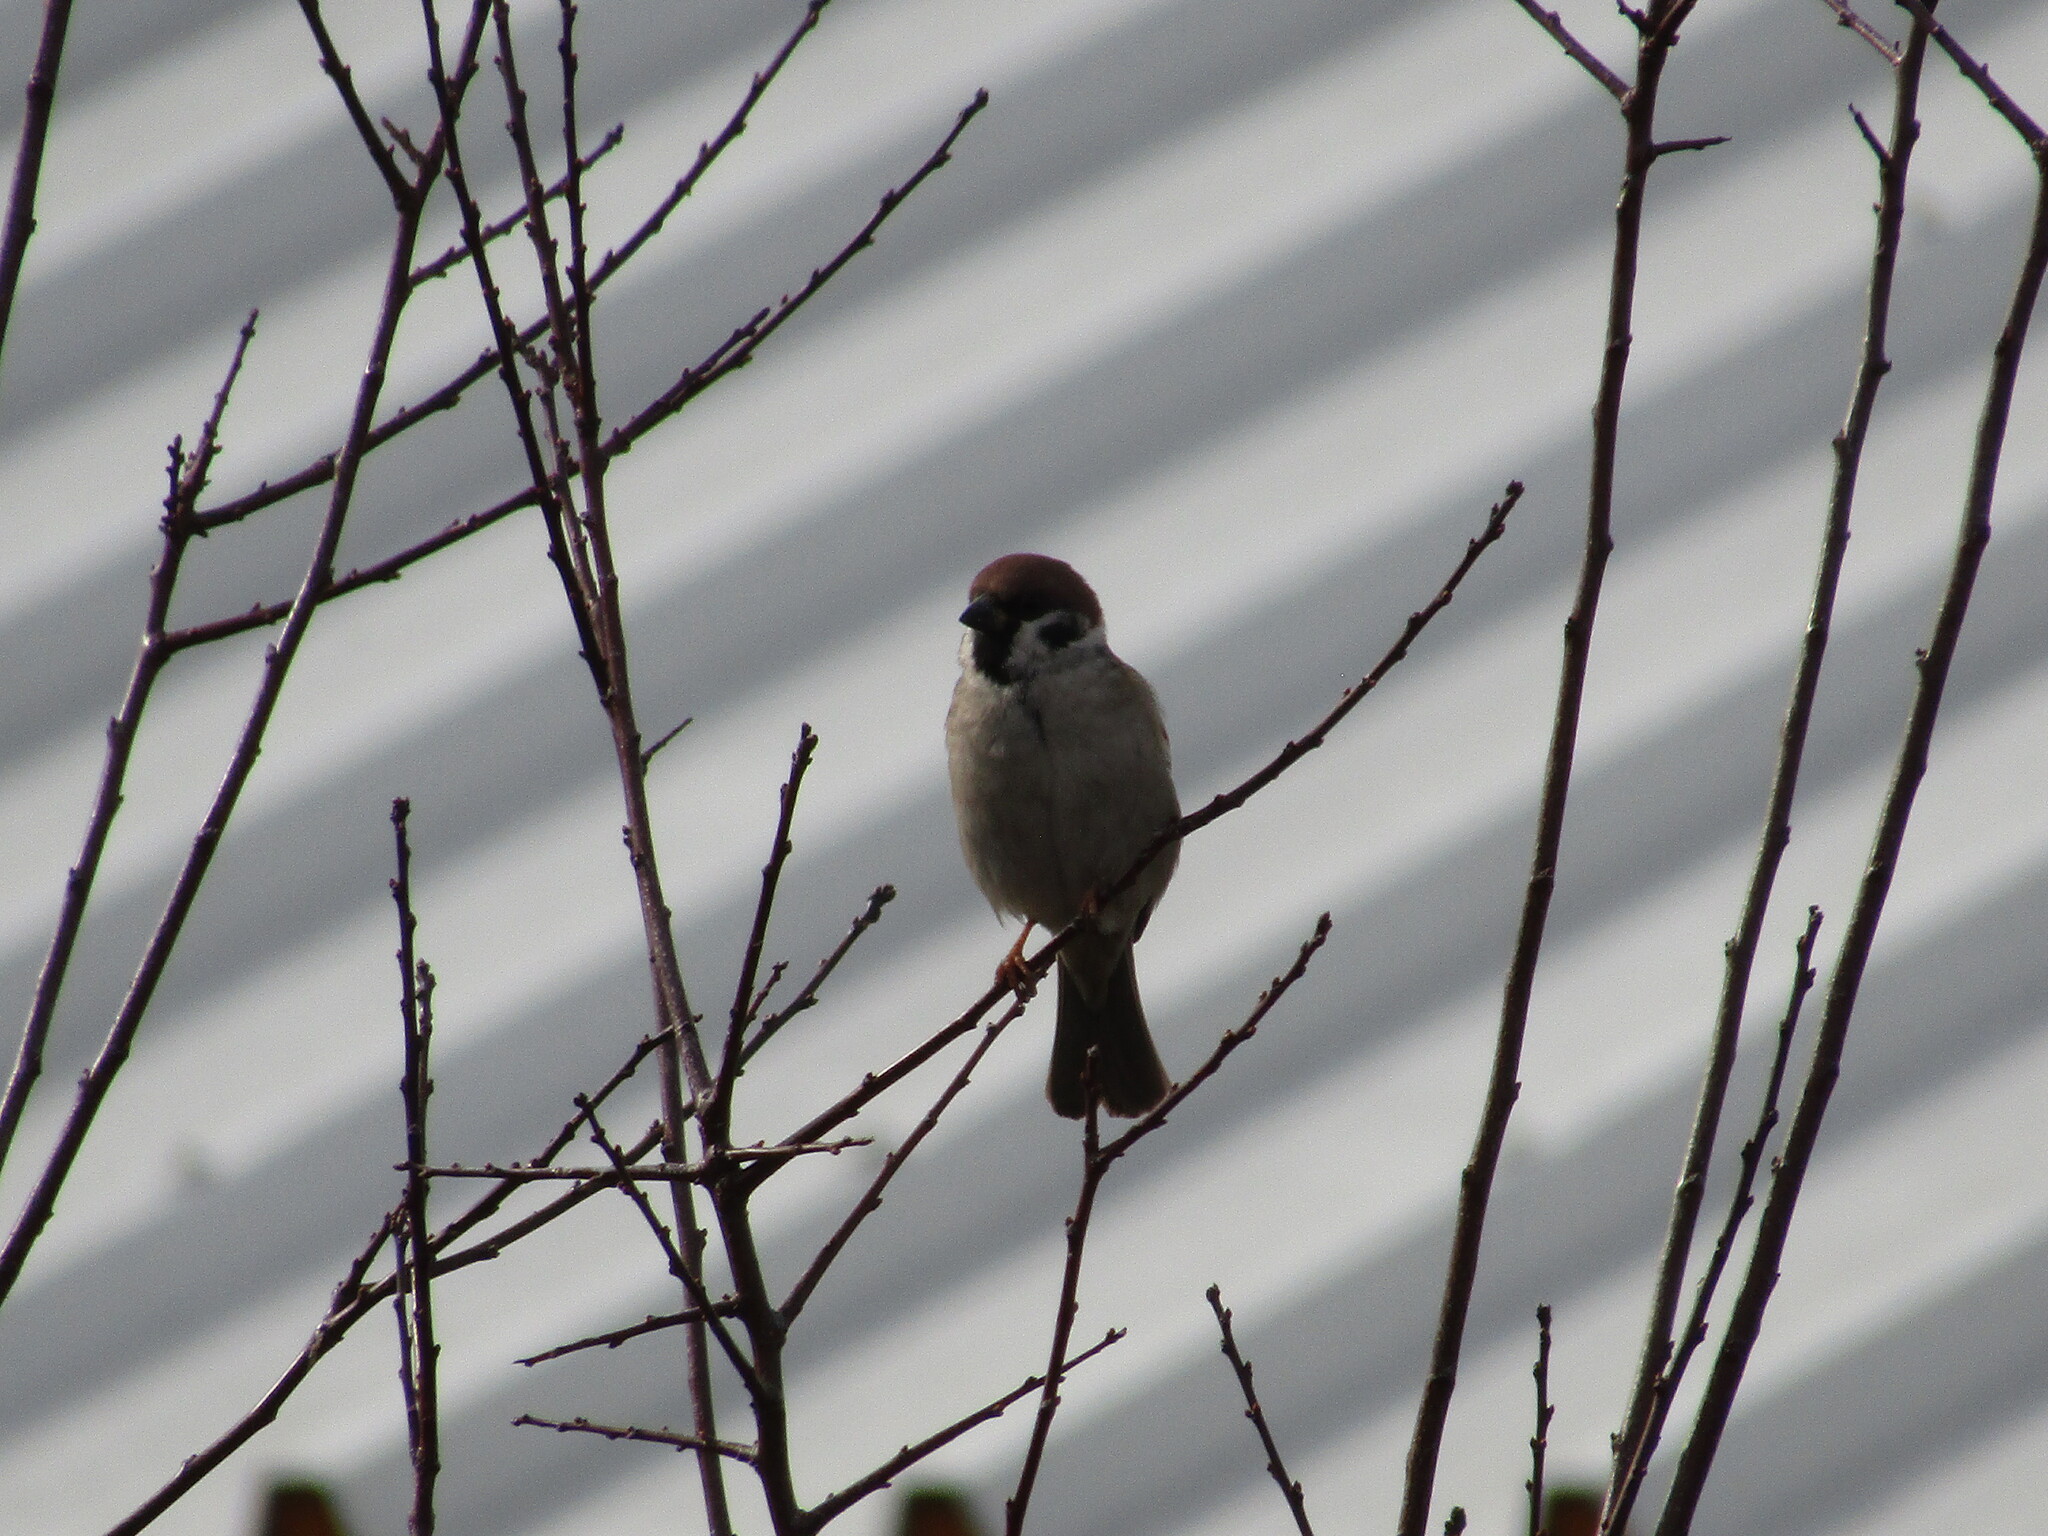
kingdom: Animalia
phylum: Chordata
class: Aves
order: Passeriformes
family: Passeridae
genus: Passer
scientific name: Passer montanus
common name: Eurasian tree sparrow
